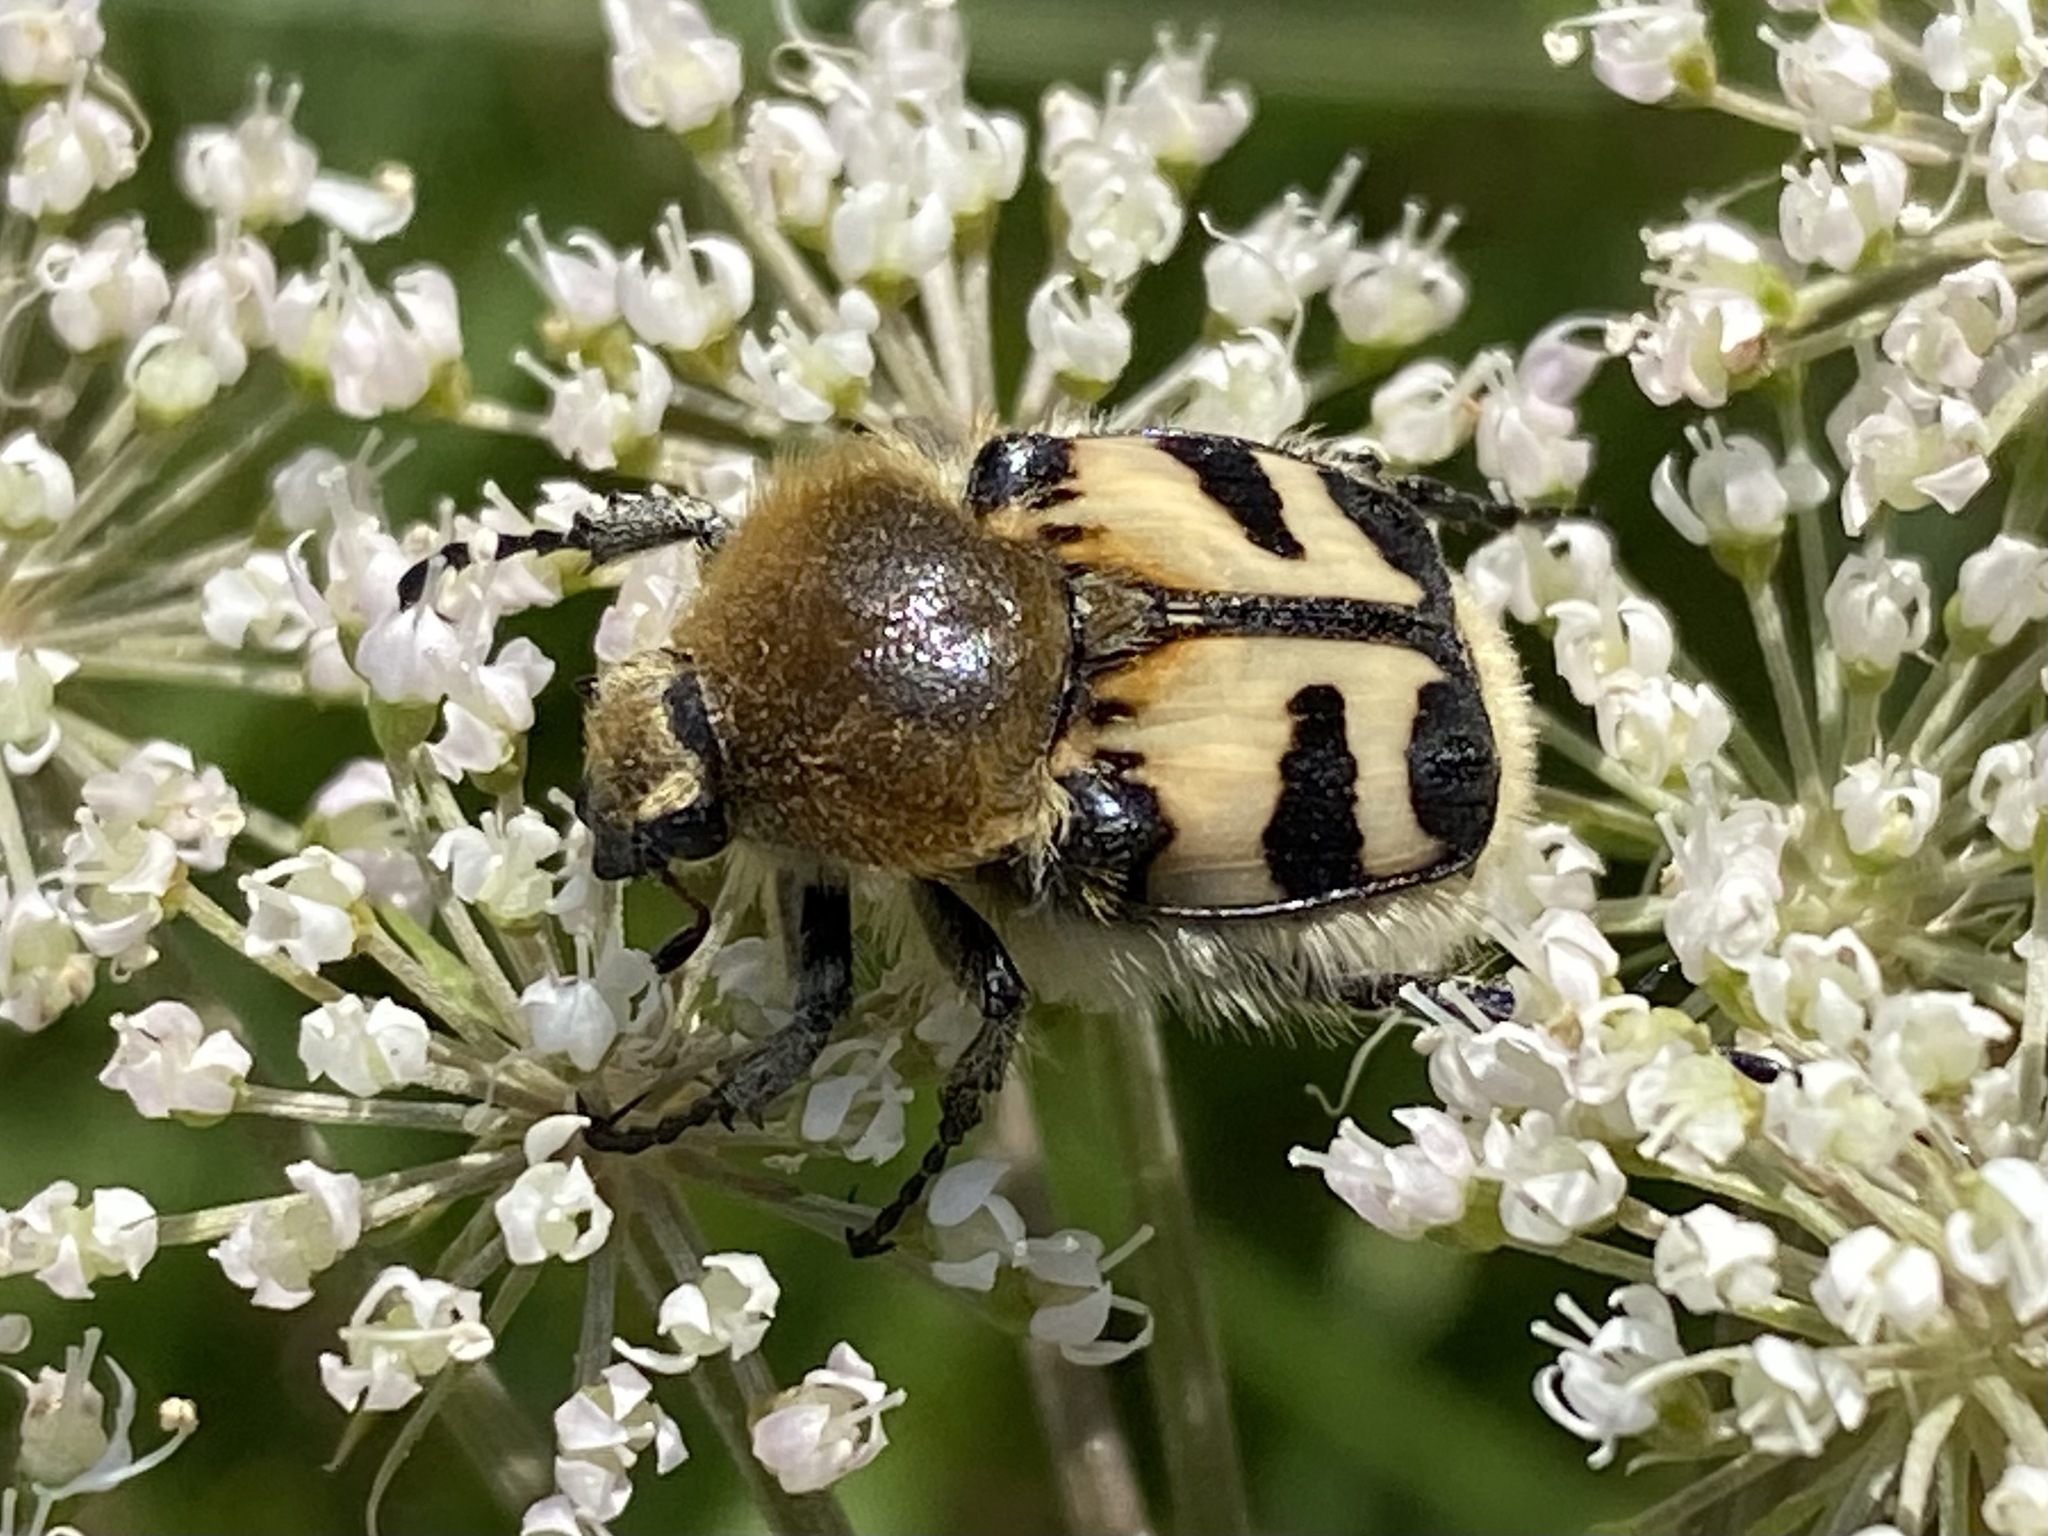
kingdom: Animalia
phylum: Arthropoda
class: Insecta
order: Coleoptera
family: Scarabaeidae
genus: Trichius
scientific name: Trichius fasciatus
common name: Bee beetle
